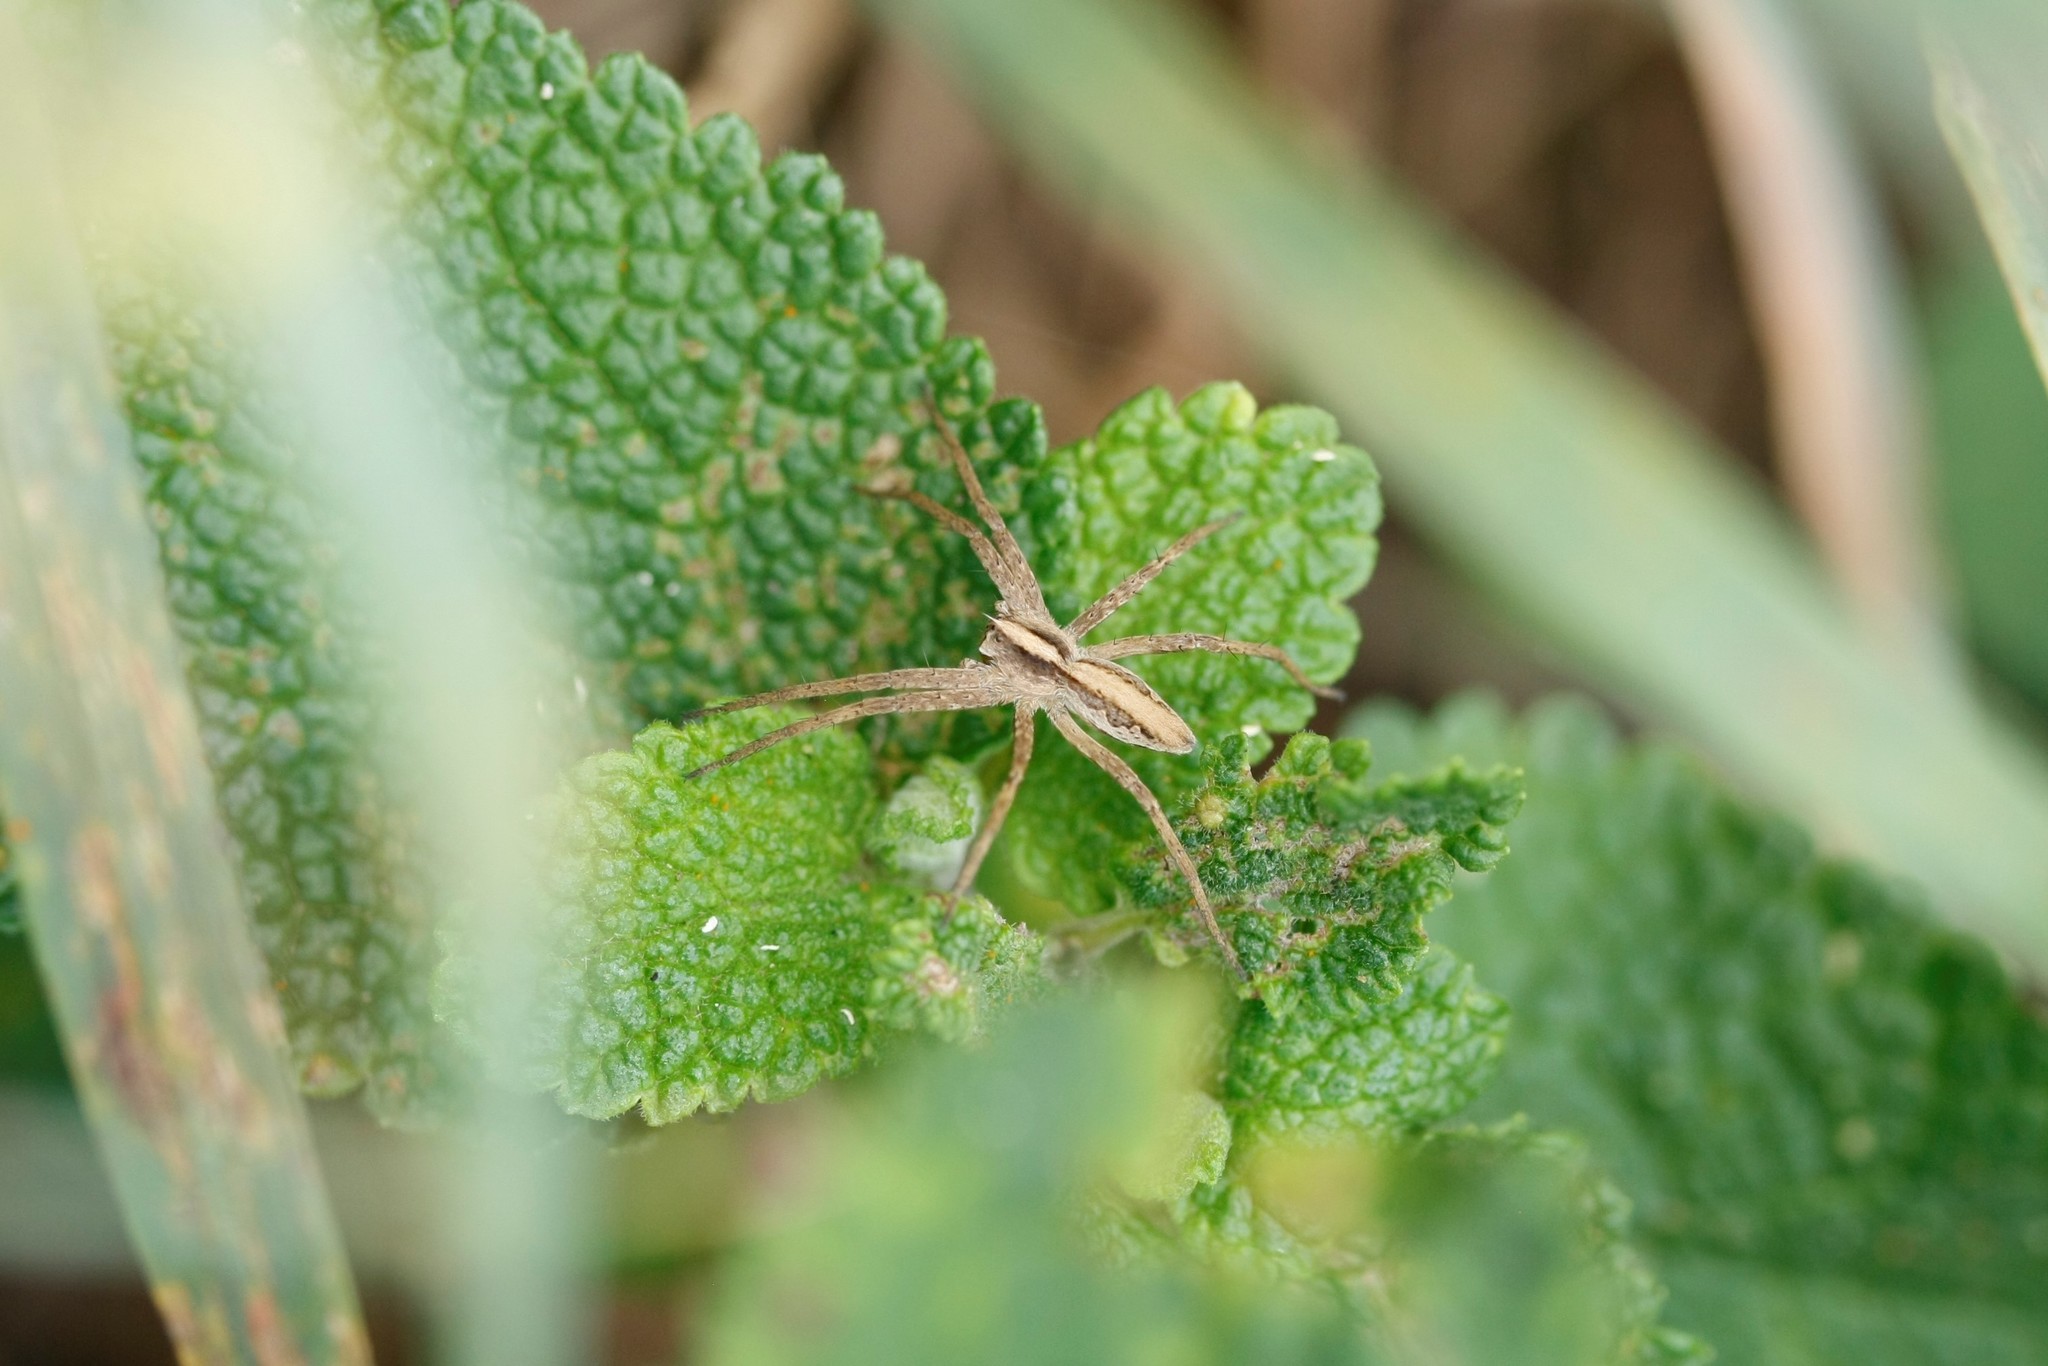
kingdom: Animalia
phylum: Arthropoda
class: Arachnida
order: Araneae
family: Pisauridae
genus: Pisaura
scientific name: Pisaura mirabilis
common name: Tent spider
